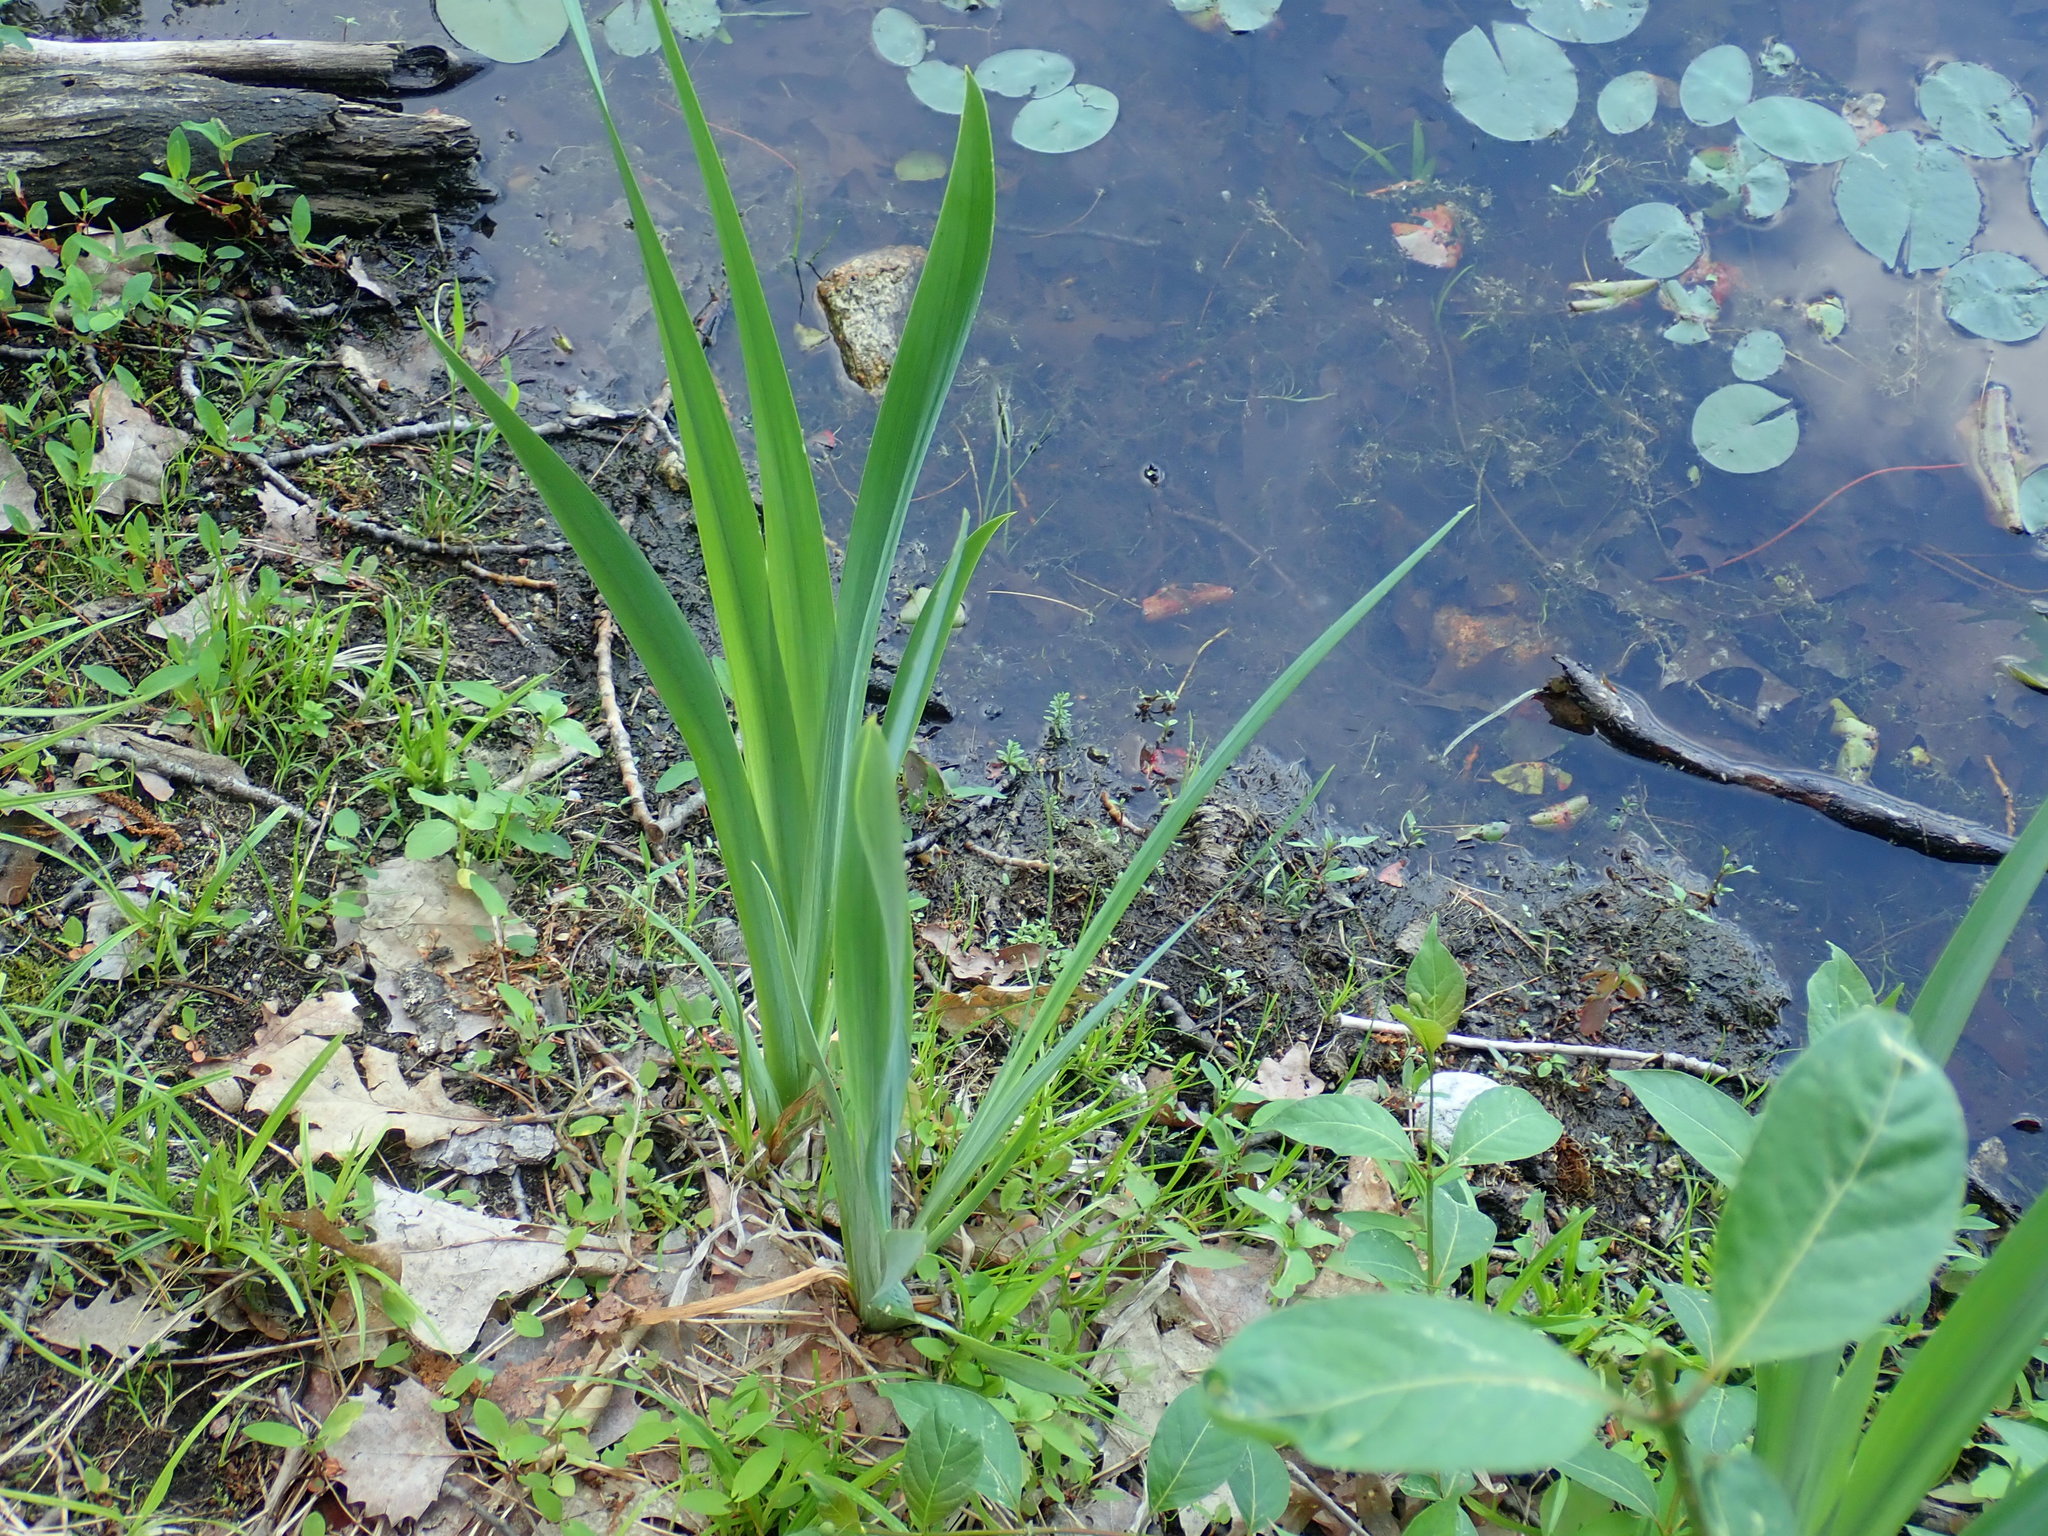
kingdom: Plantae
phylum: Tracheophyta
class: Liliopsida
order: Asparagales
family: Iridaceae
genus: Iris
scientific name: Iris pseudacorus
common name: Yellow flag
